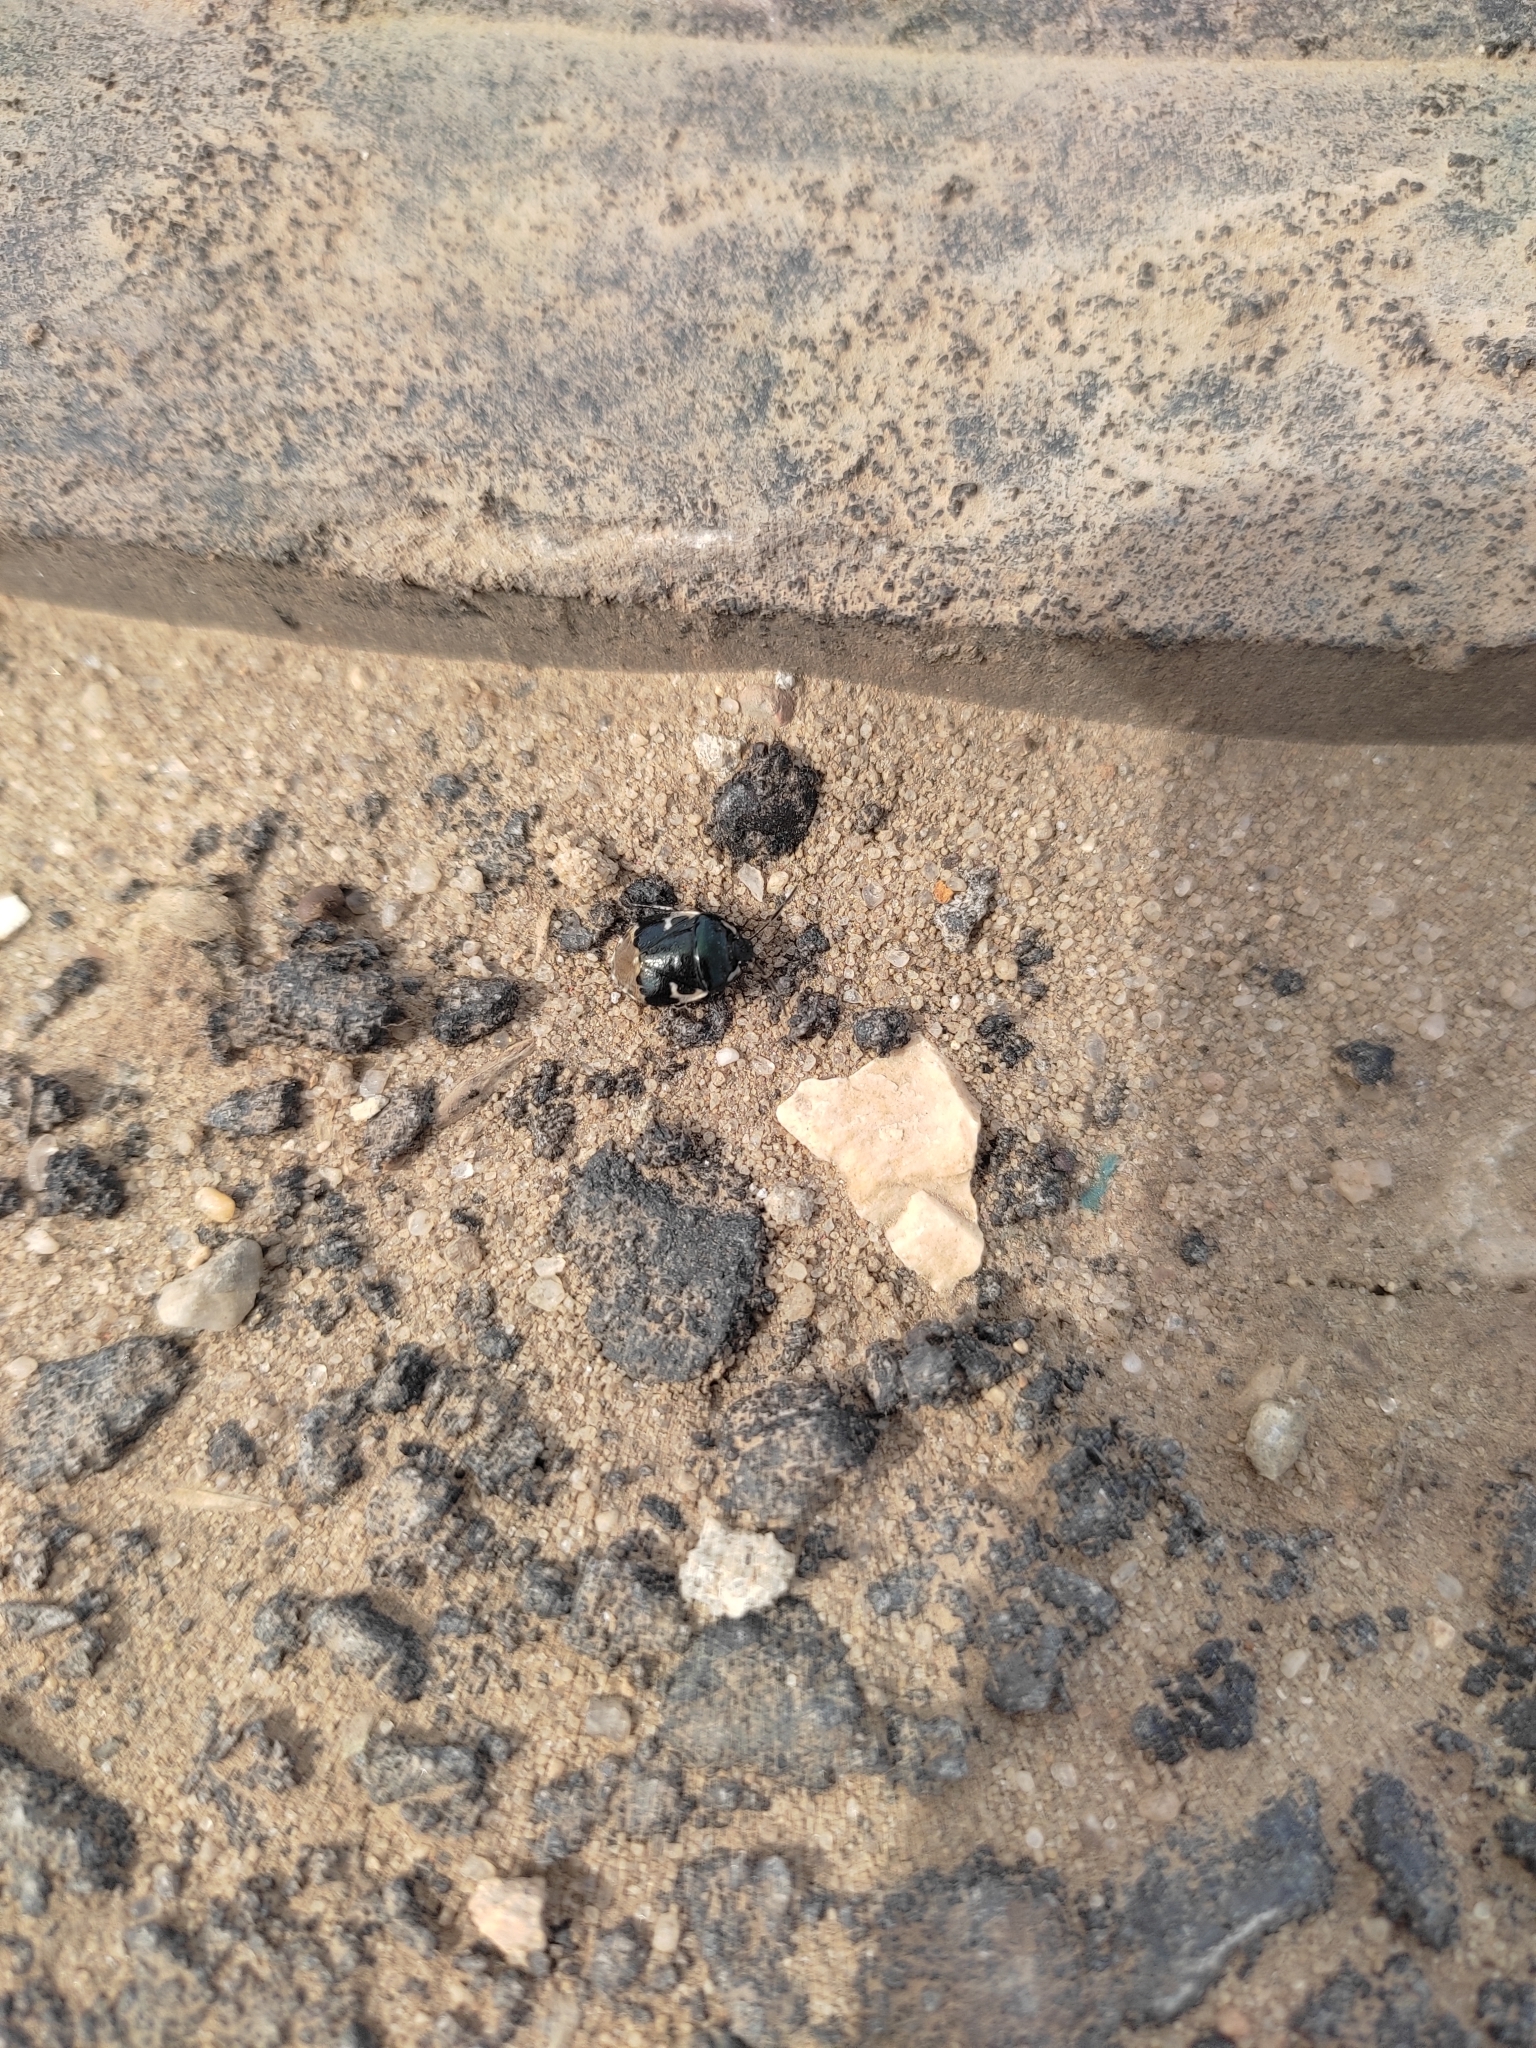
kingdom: Animalia
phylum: Arthropoda
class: Insecta
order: Hemiptera
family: Cydnidae
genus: Tritomegas
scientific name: Tritomegas bicolor
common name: Pied shieldbug
